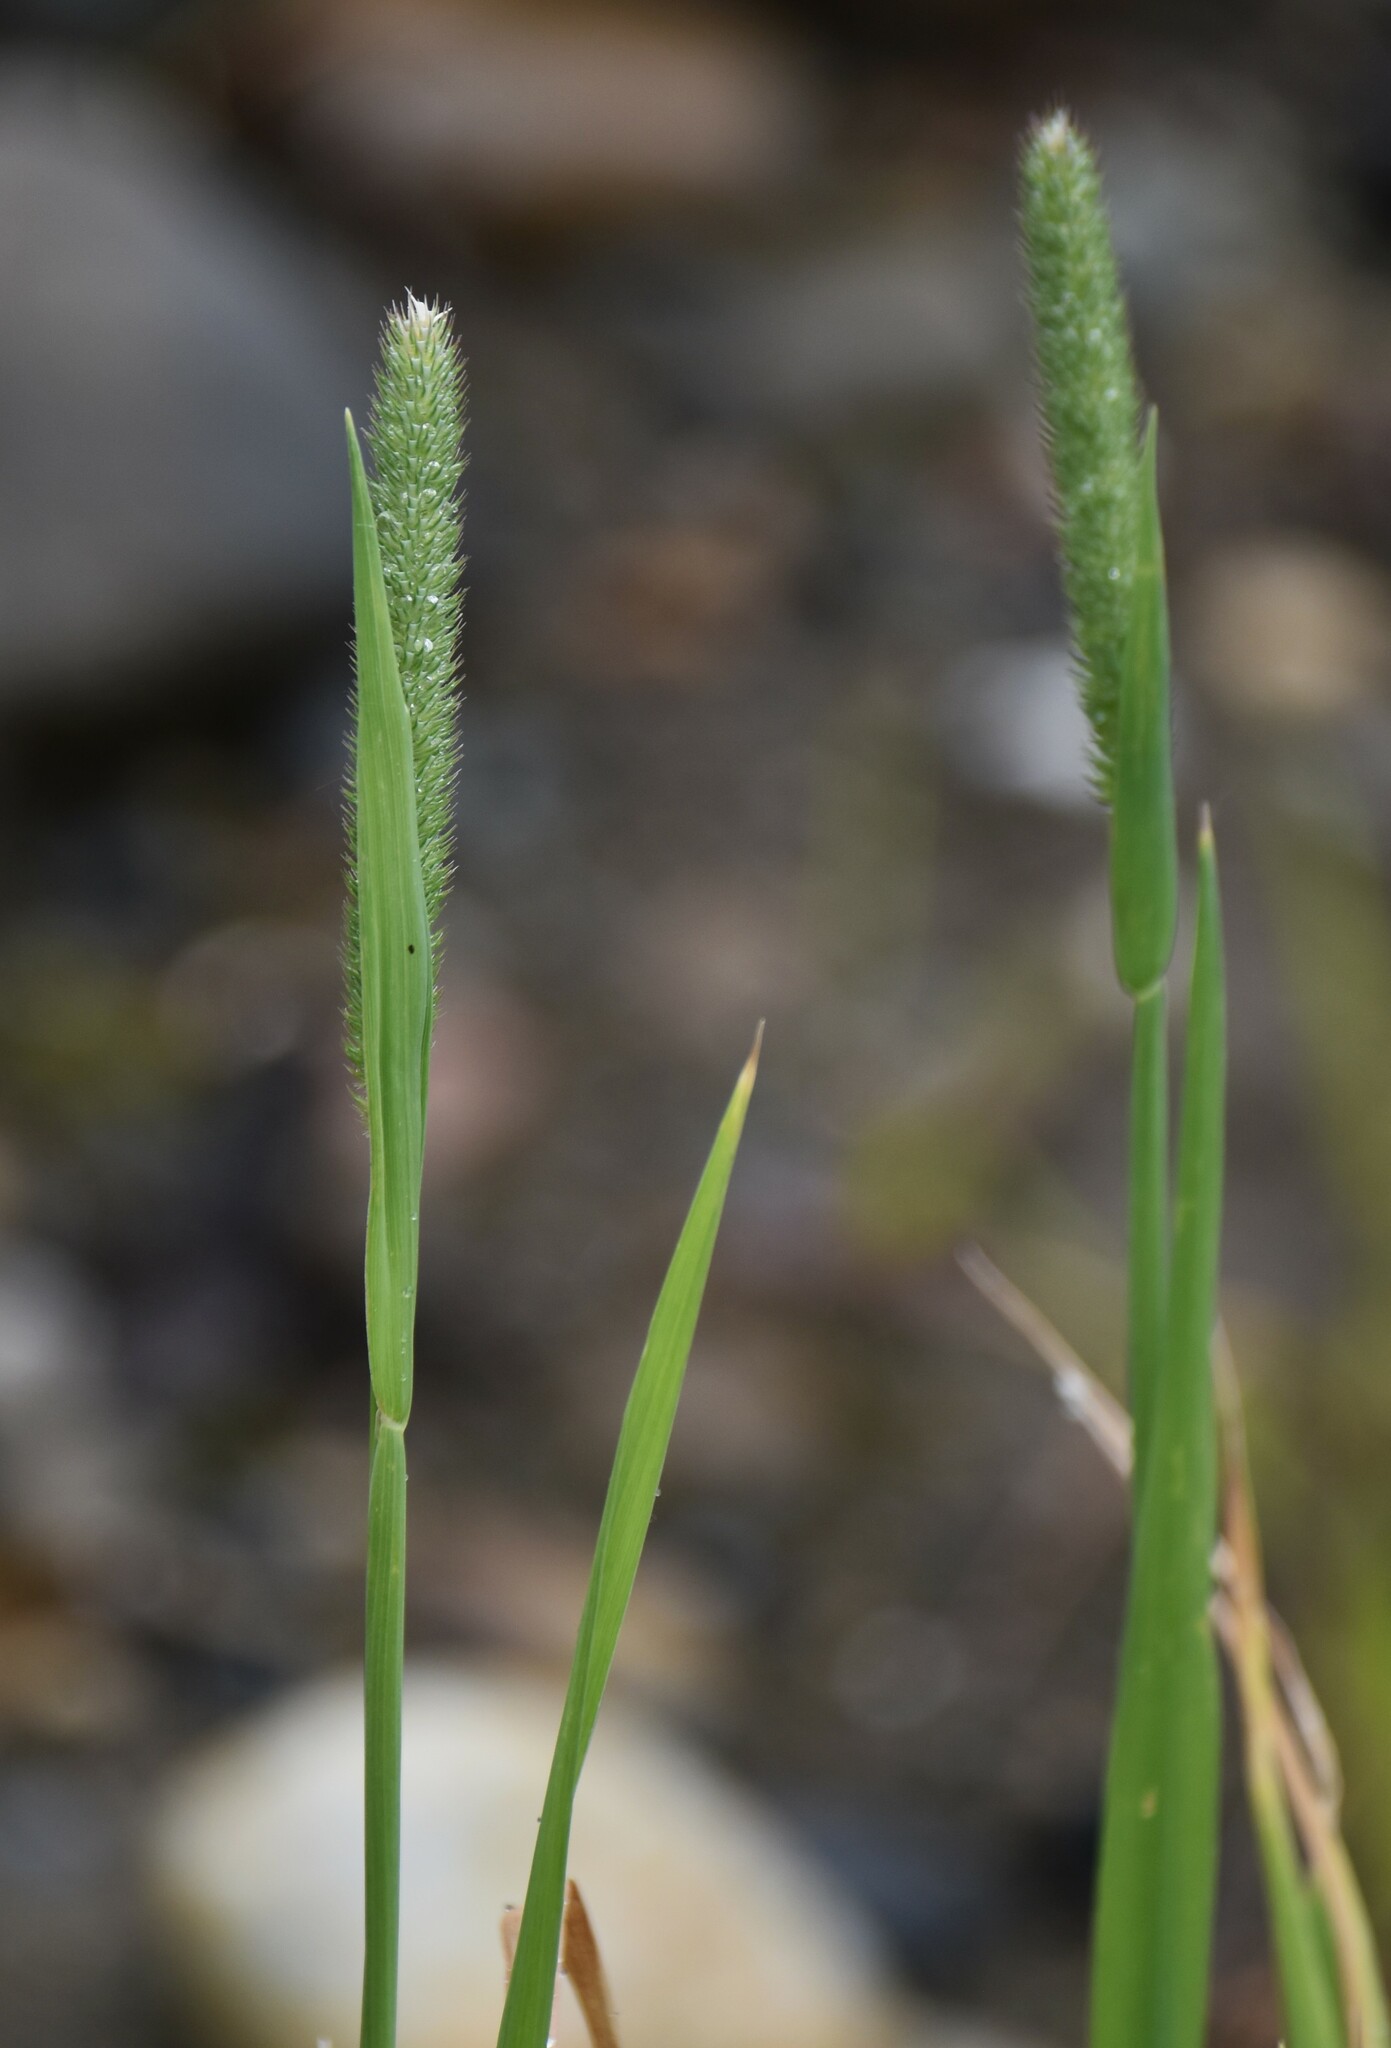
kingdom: Plantae
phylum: Tracheophyta
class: Liliopsida
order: Poales
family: Poaceae
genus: Phleum
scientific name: Phleum pratense
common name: Timothy grass
